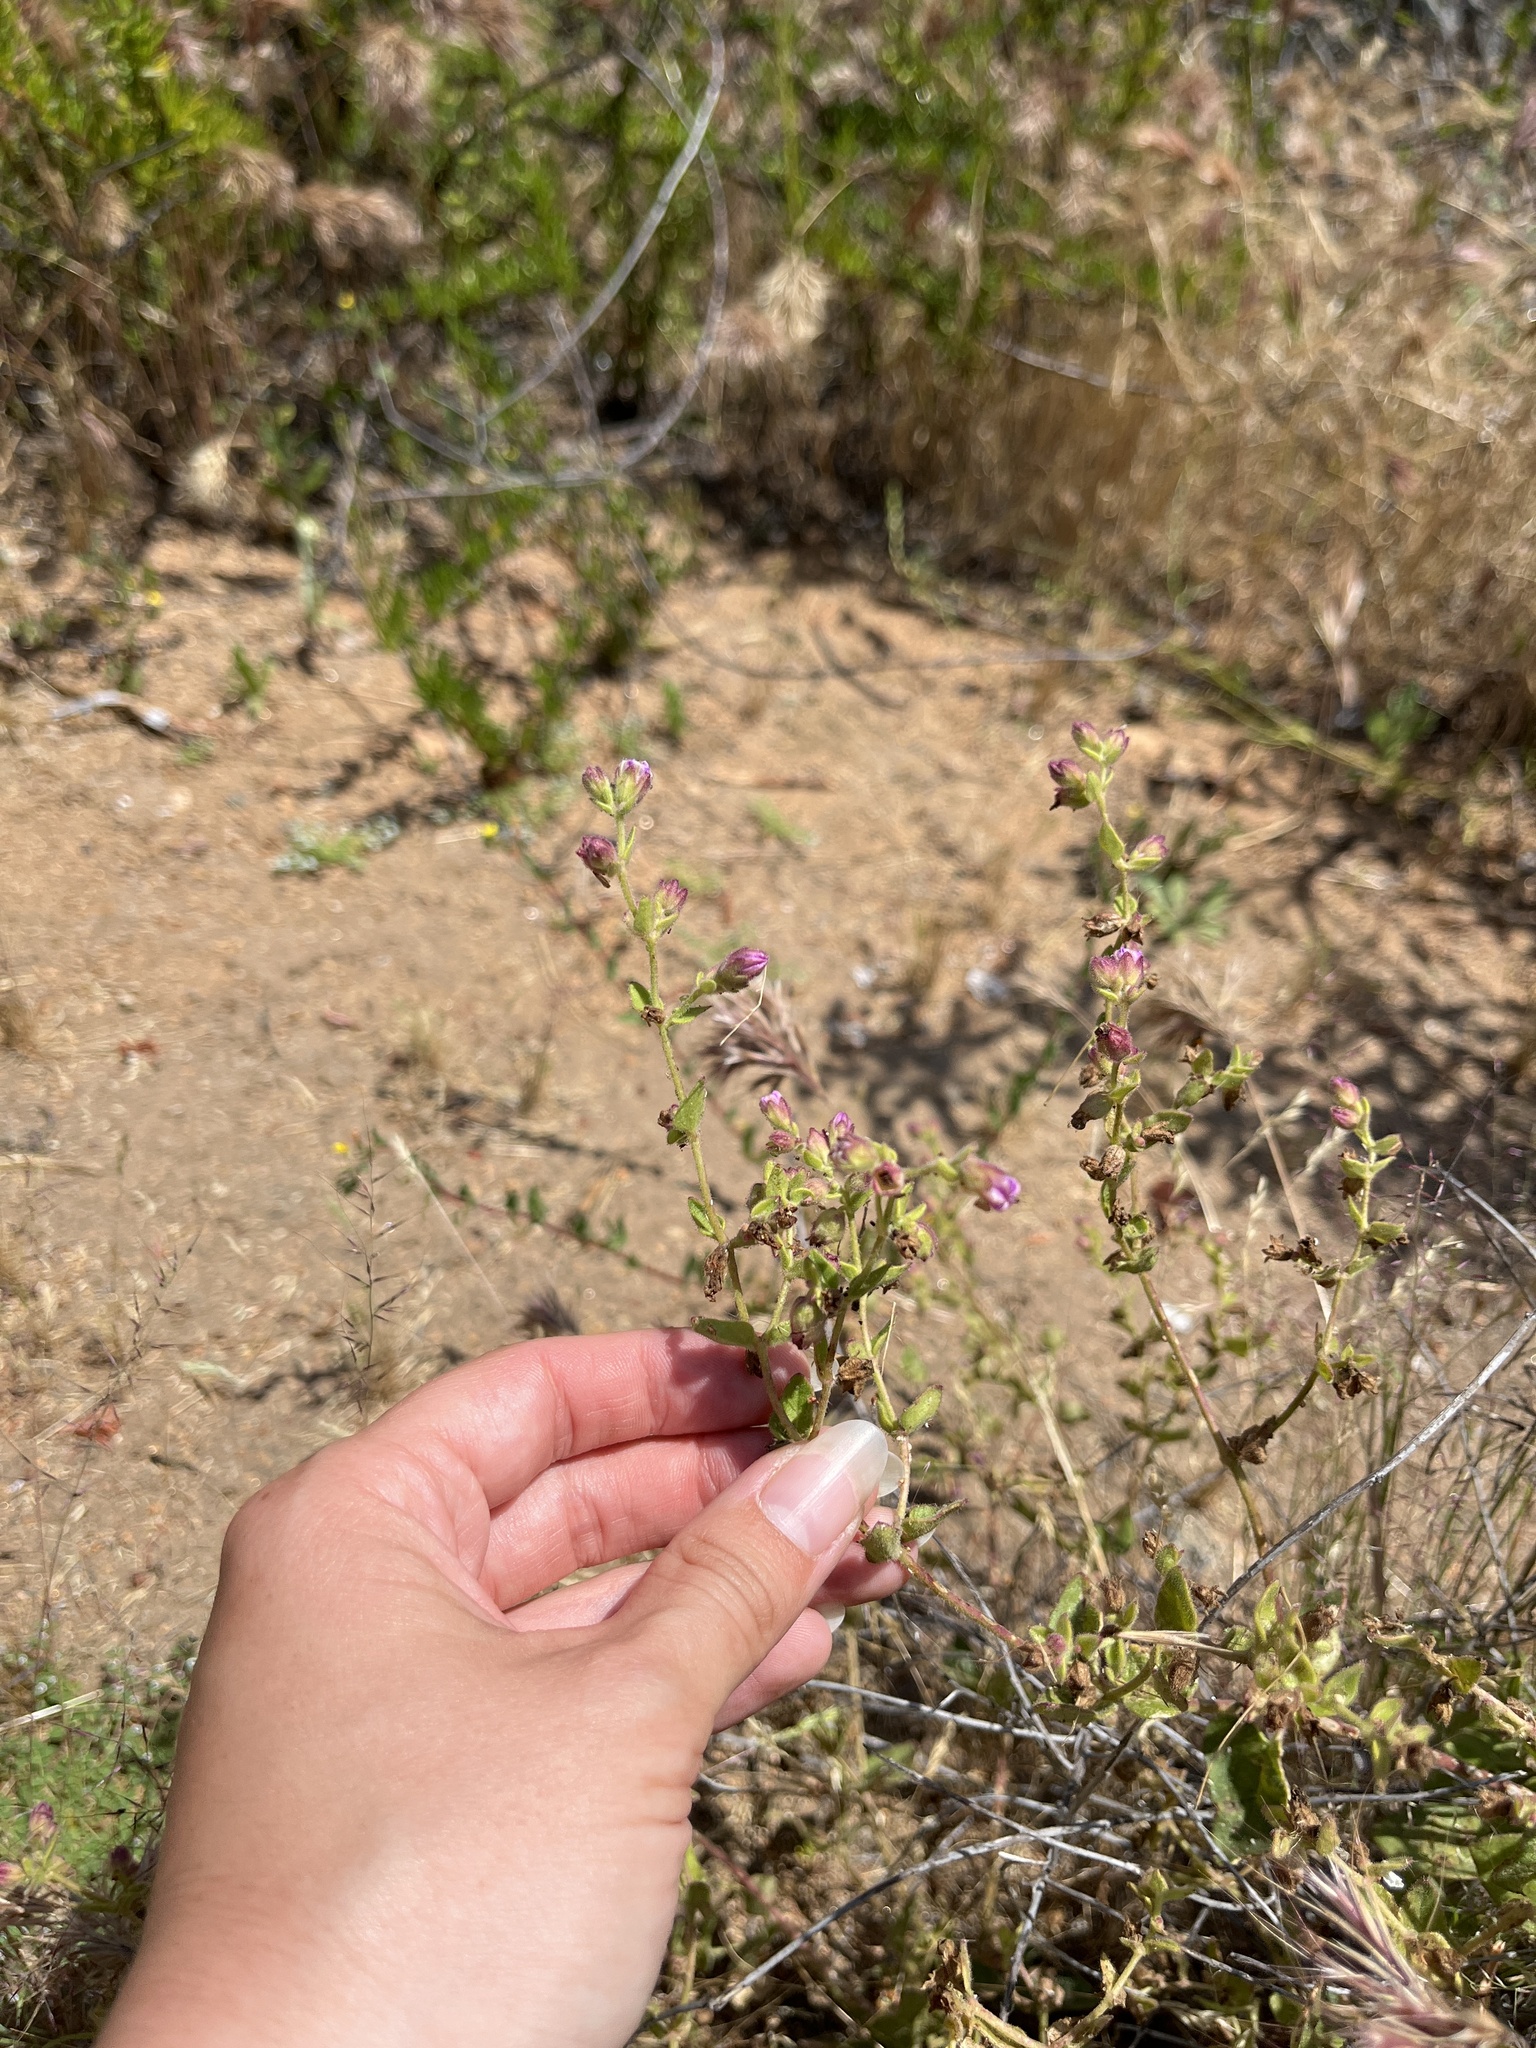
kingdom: Plantae
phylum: Tracheophyta
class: Magnoliopsida
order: Caryophyllales
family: Nyctaginaceae
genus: Mirabilis
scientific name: Mirabilis laevis
